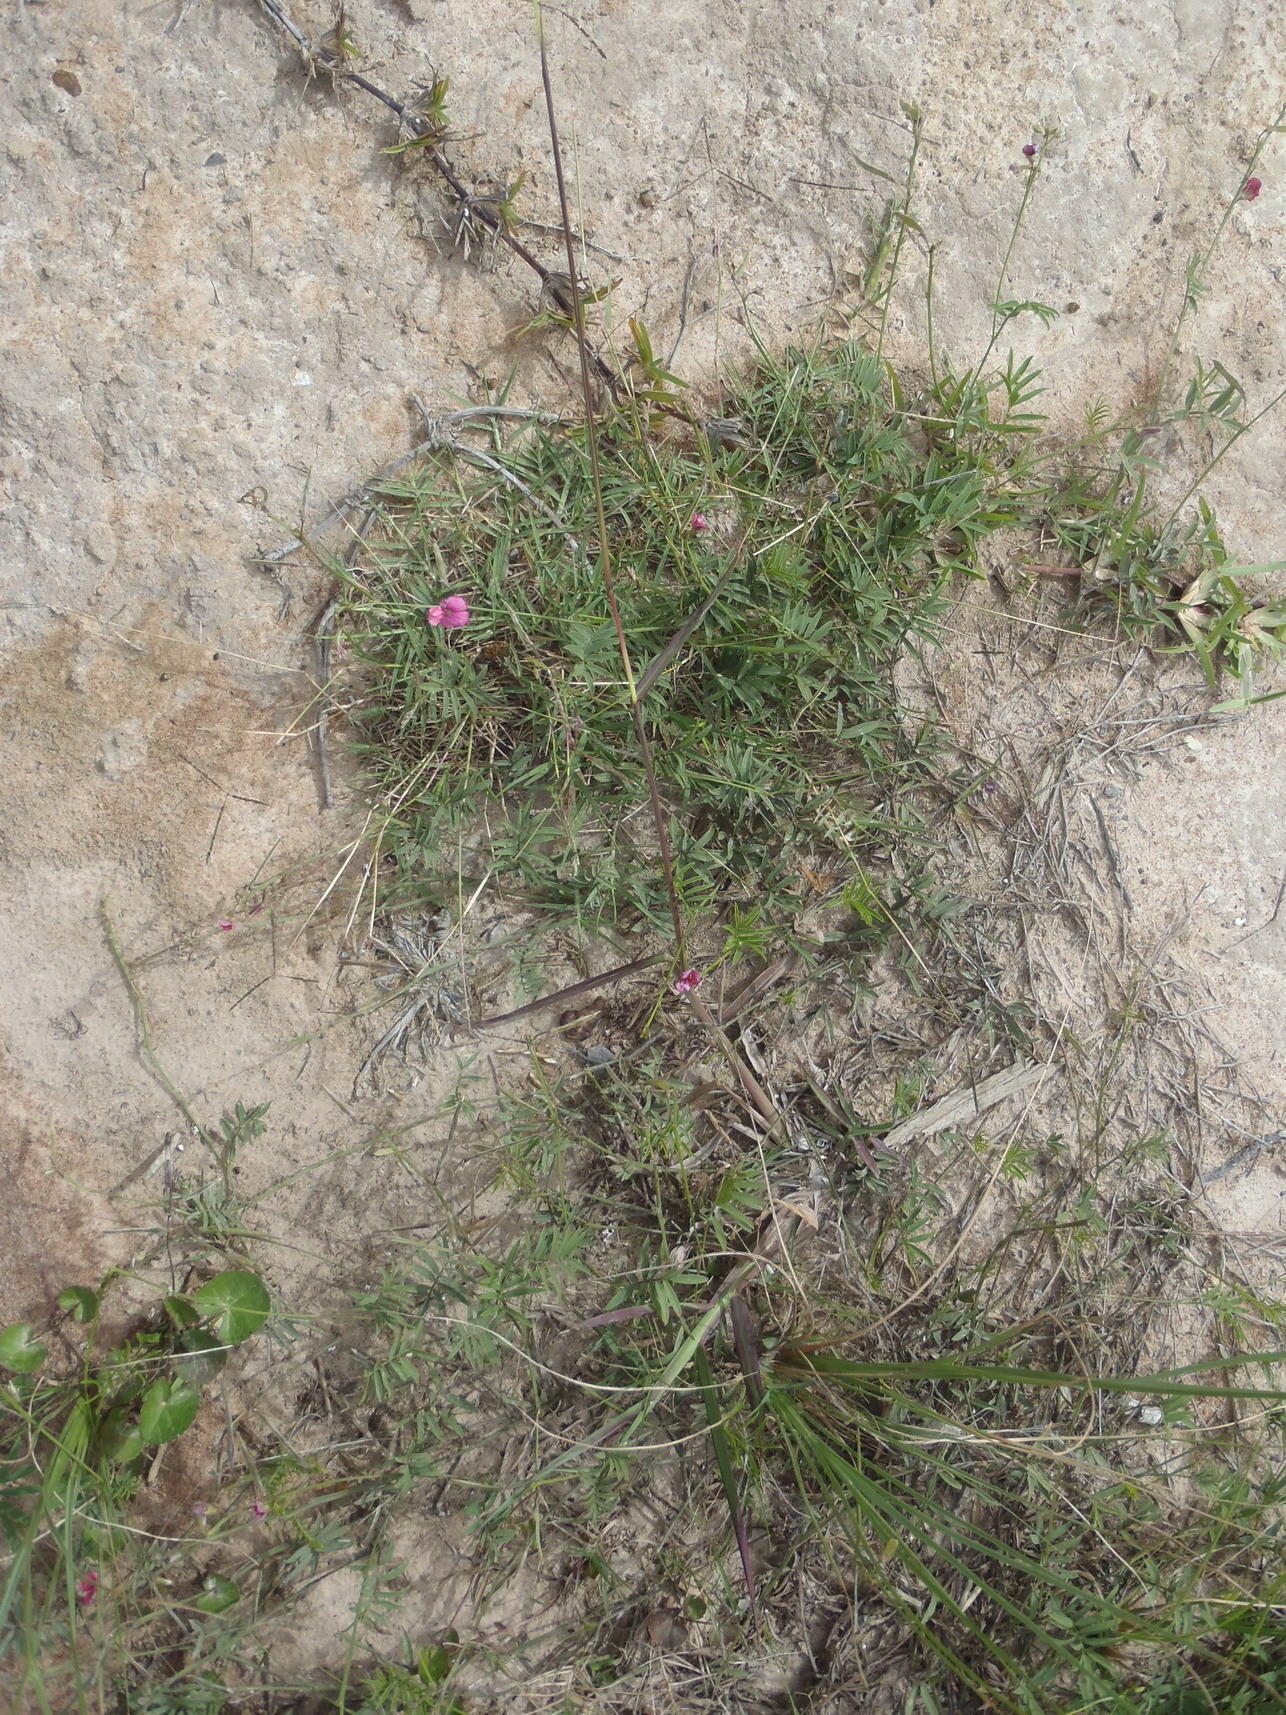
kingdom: Plantae
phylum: Tracheophyta
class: Magnoliopsida
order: Fabales
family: Fabaceae
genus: Tephrosia
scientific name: Tephrosia capensis
